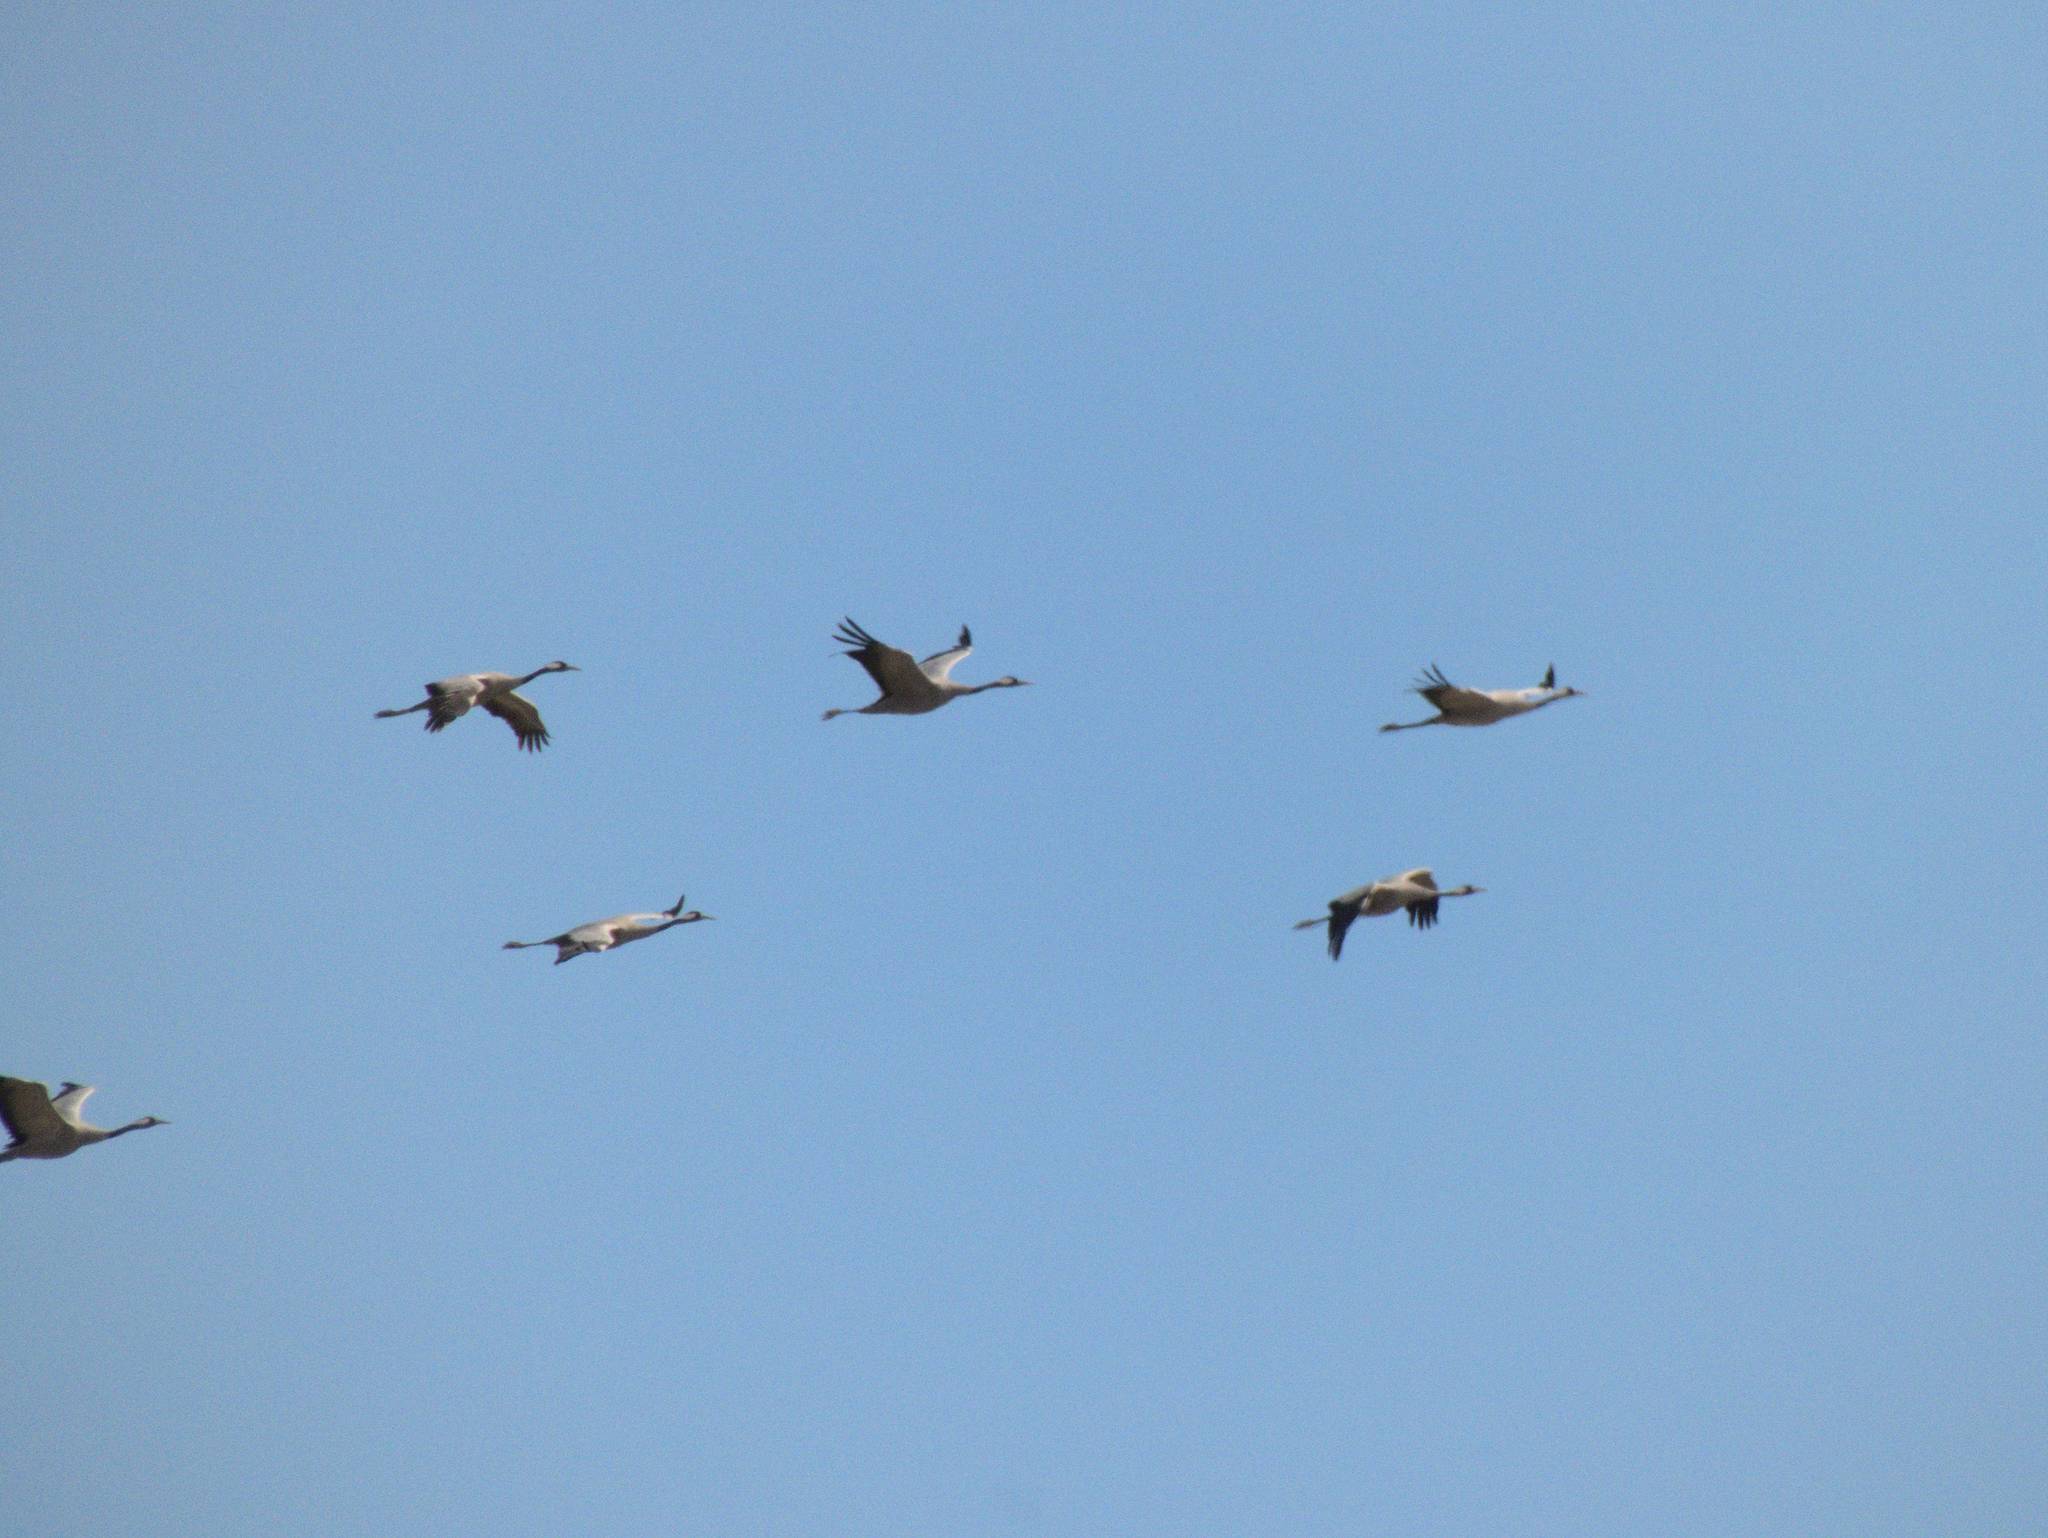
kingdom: Animalia
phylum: Chordata
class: Aves
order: Gruiformes
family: Gruidae
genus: Grus
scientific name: Grus grus
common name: Common crane
